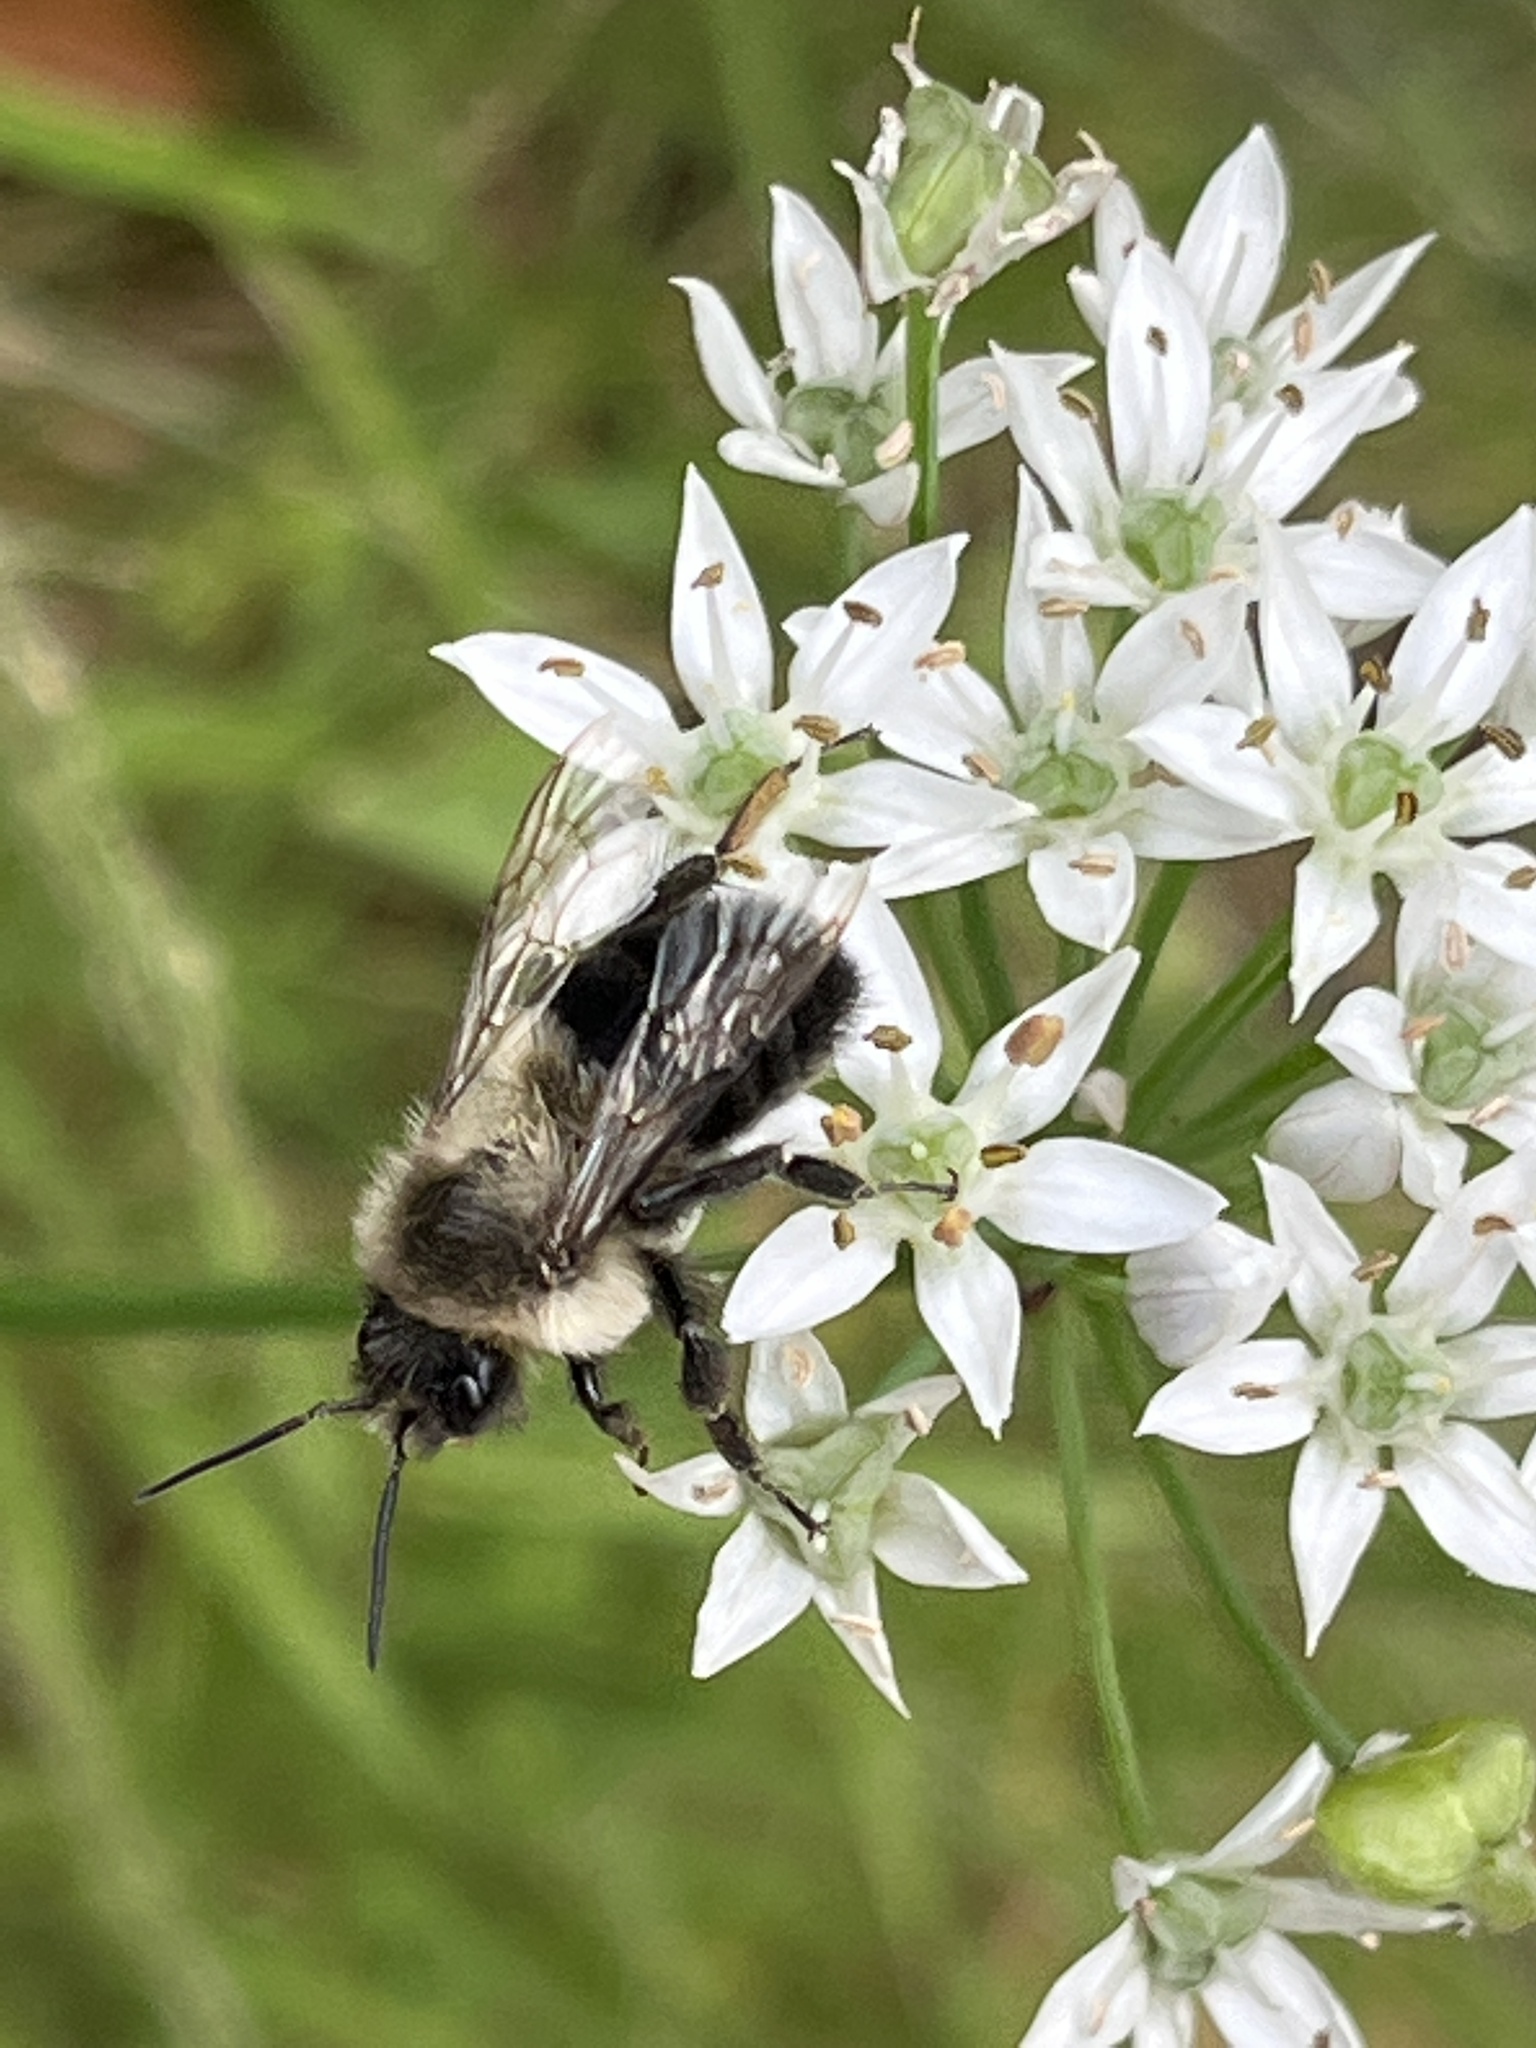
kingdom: Animalia
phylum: Arthropoda
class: Insecta
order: Hymenoptera
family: Apidae
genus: Bombus
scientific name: Bombus impatiens
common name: Common eastern bumble bee
